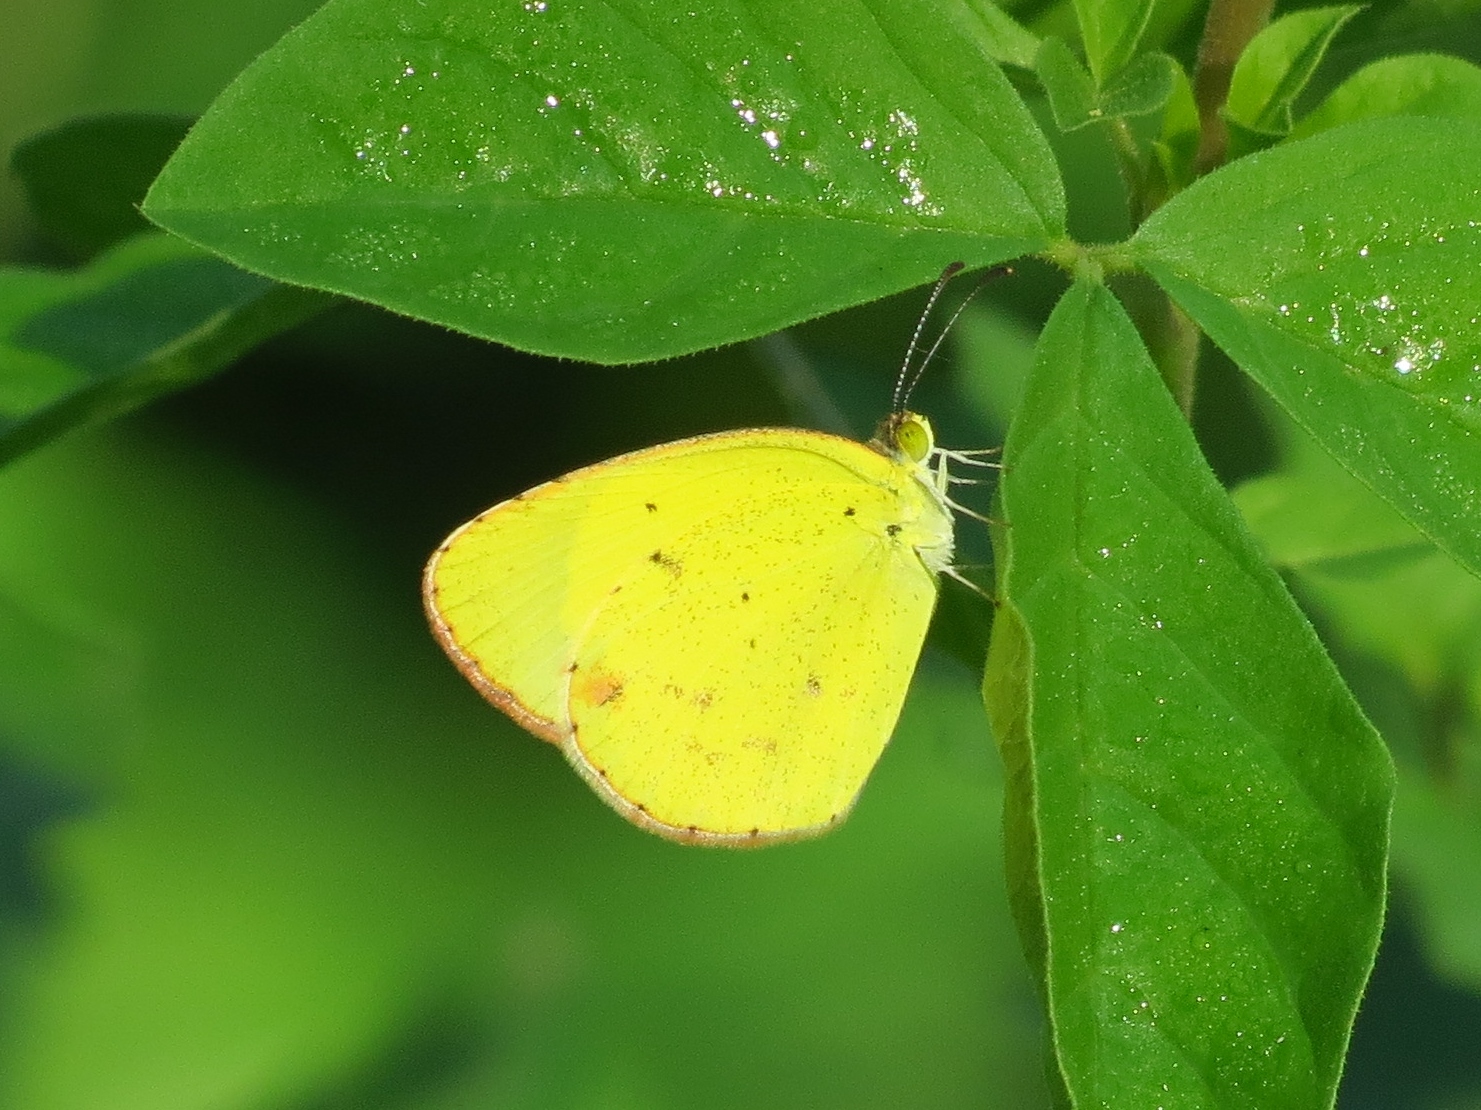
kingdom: Animalia
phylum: Arthropoda
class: Insecta
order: Lepidoptera
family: Pieridae
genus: Pyrisitia
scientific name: Pyrisitia lisa
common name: Little yellow
